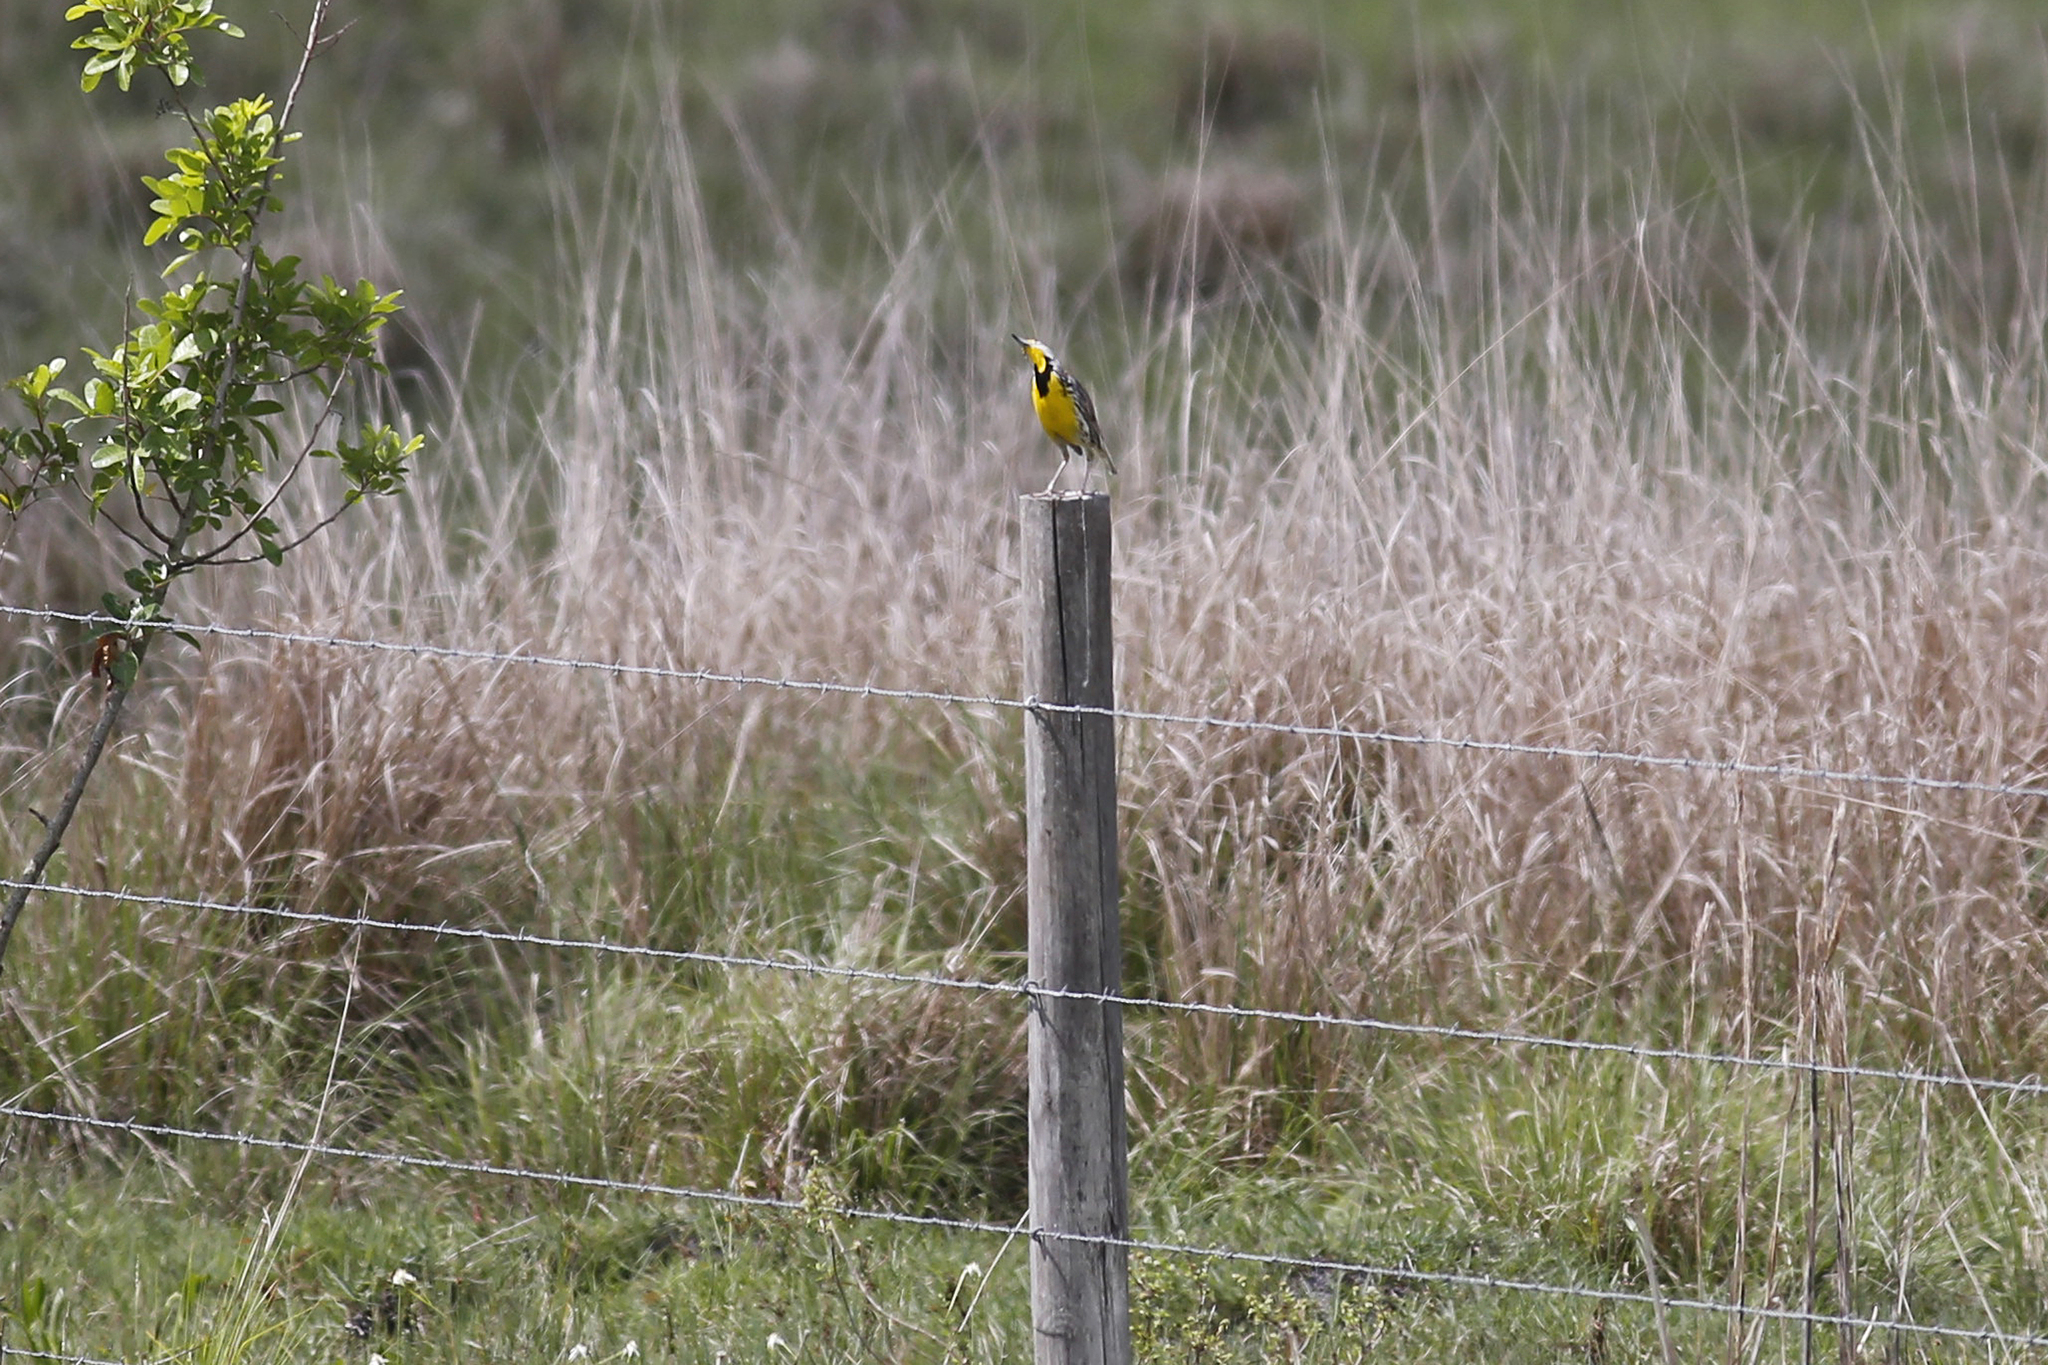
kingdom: Animalia
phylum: Chordata
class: Aves
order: Passeriformes
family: Icteridae
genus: Sturnella
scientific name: Sturnella magna
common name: Eastern meadowlark
